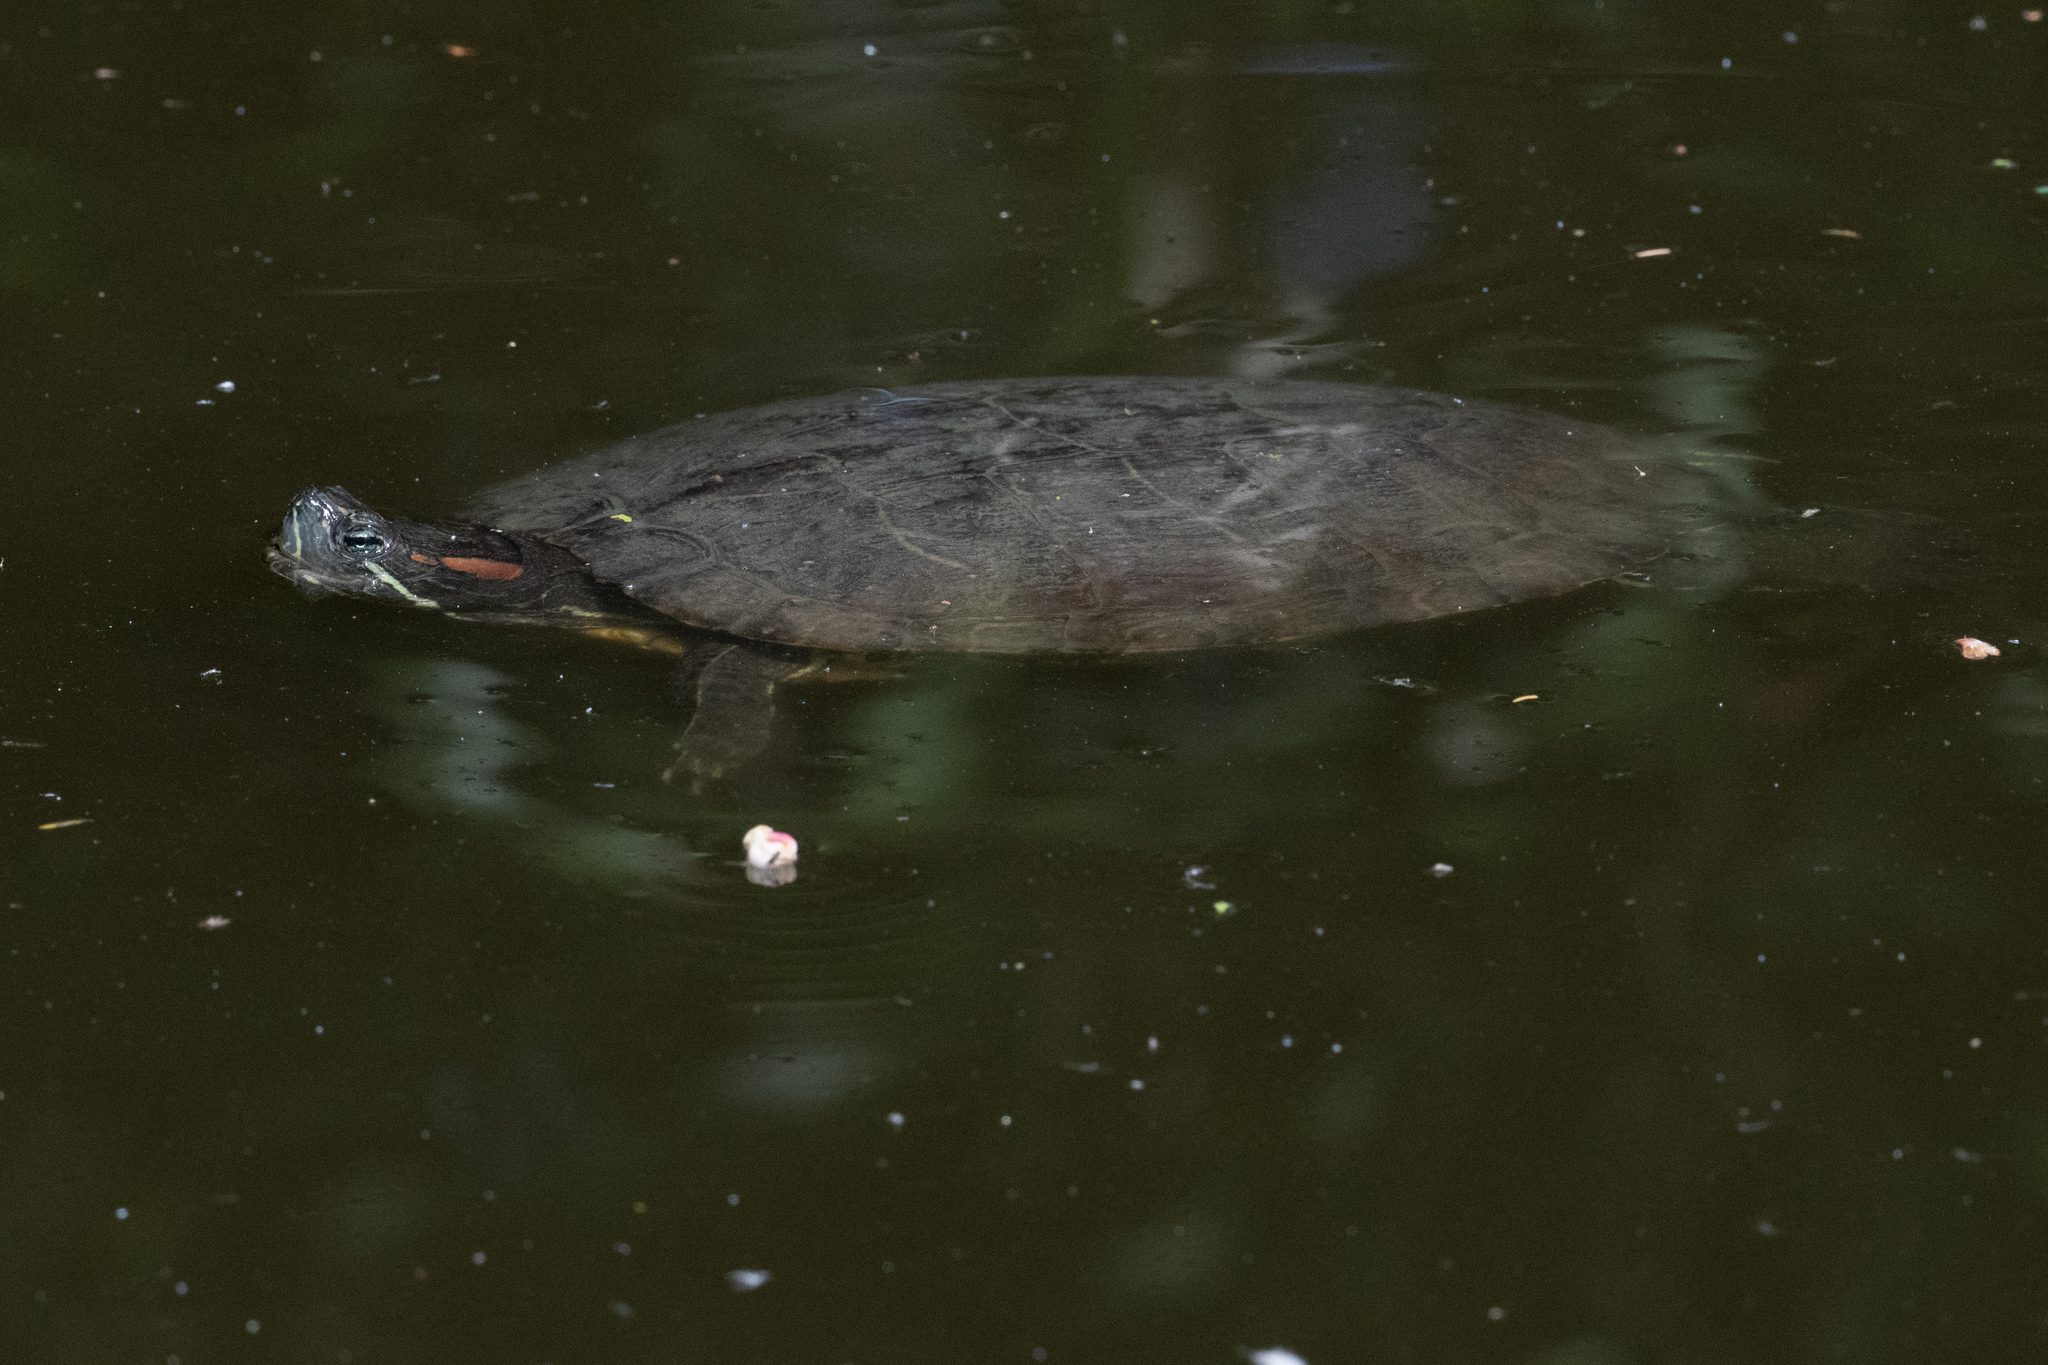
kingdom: Animalia
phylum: Chordata
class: Testudines
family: Emydidae
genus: Trachemys
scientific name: Trachemys scripta
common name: Slider
